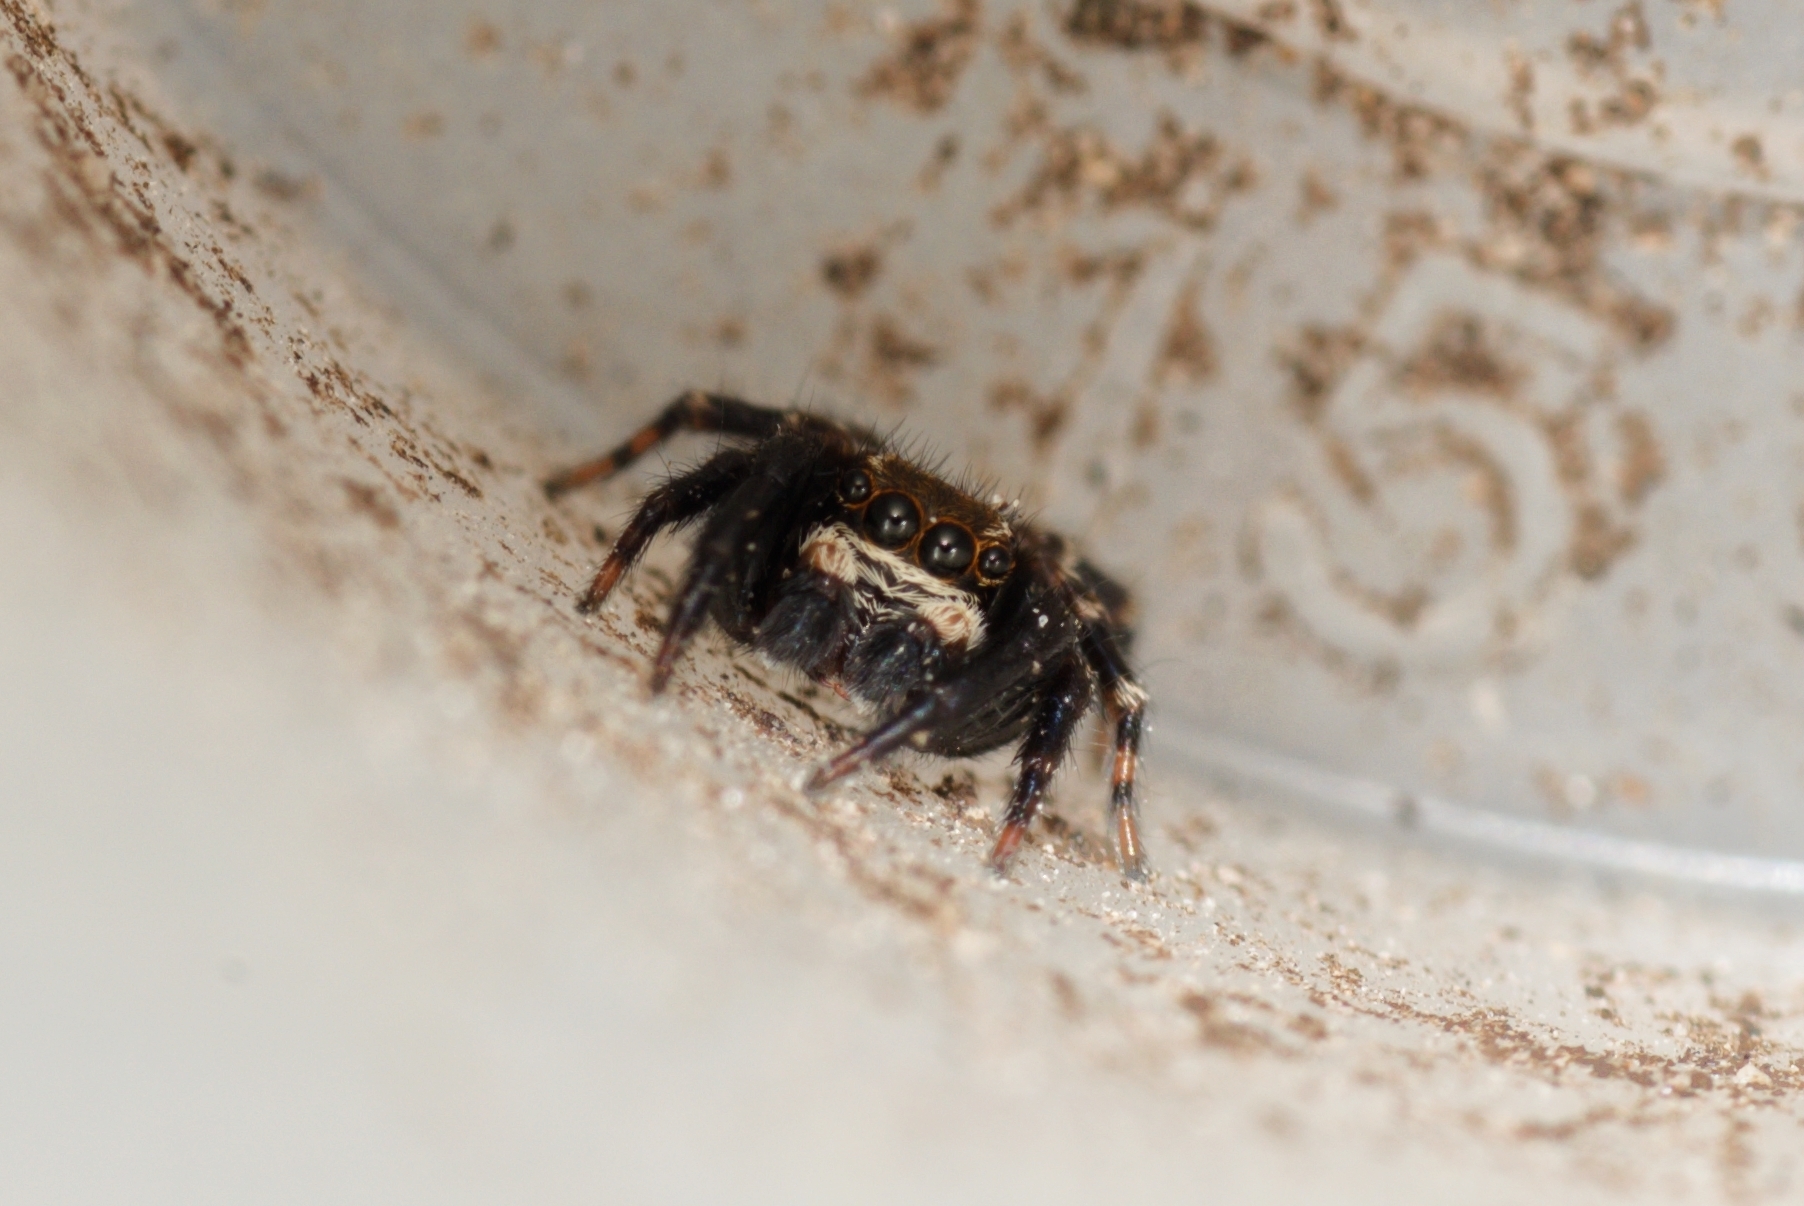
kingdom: Animalia
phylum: Arthropoda
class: Arachnida
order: Araneae
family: Salticidae
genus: Pseudeuophrys
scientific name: Pseudeuophrys erratica
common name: Jumping spider
